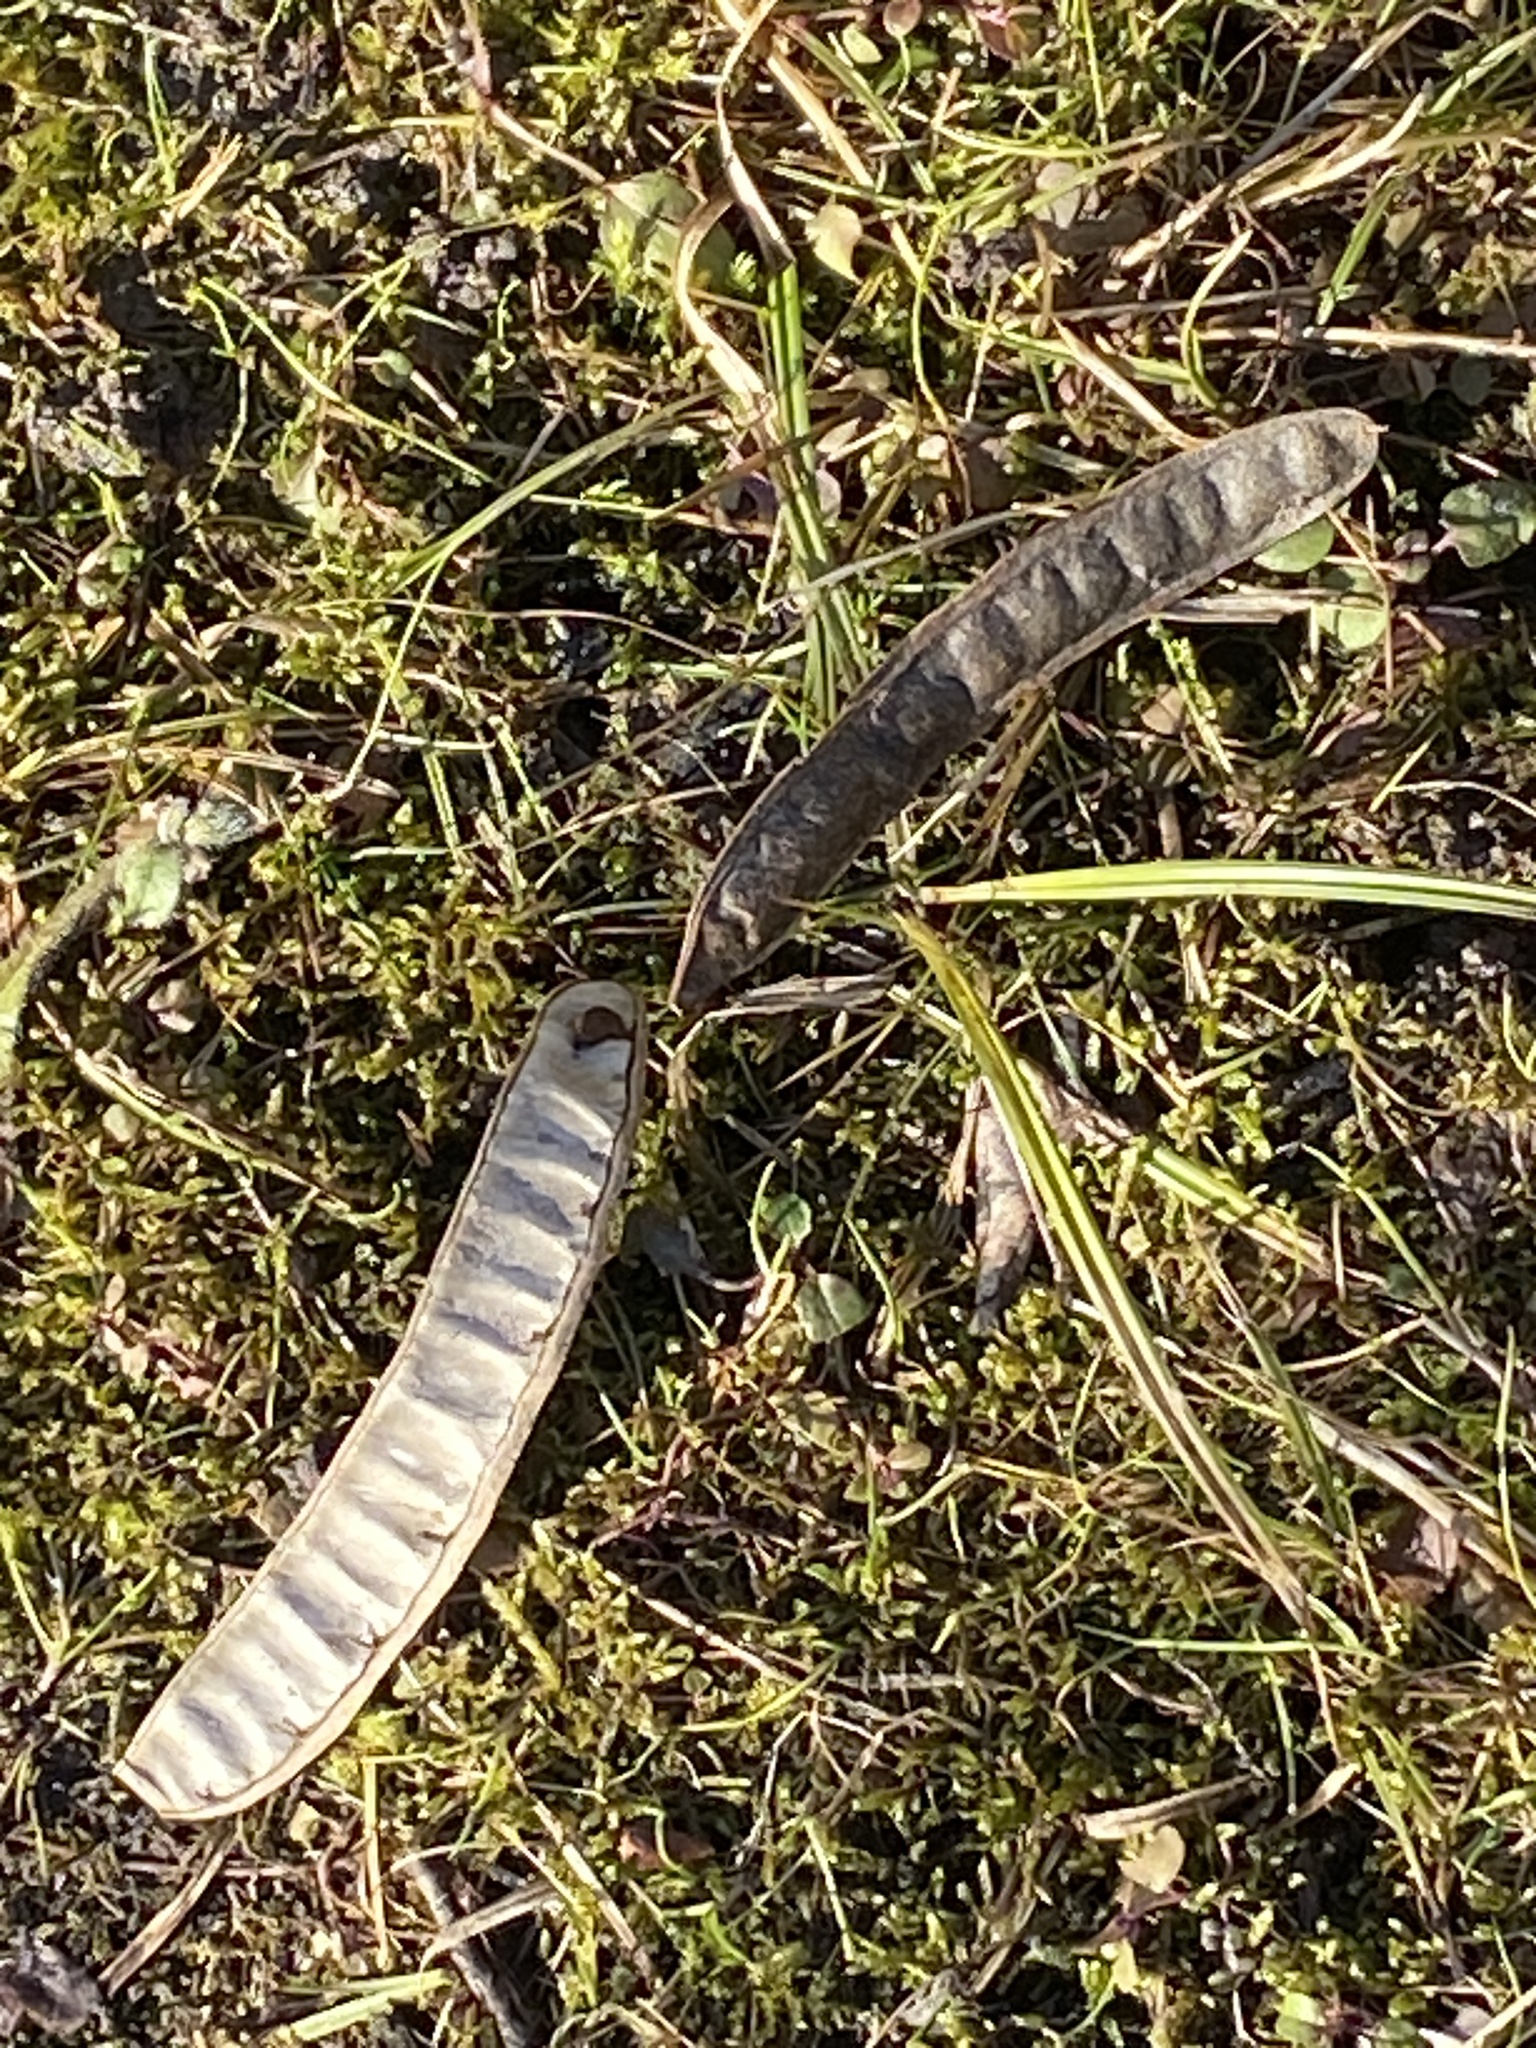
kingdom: Plantae
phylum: Tracheophyta
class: Magnoliopsida
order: Fabales
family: Fabaceae
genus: Robinia
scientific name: Robinia pseudoacacia
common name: Black locust
